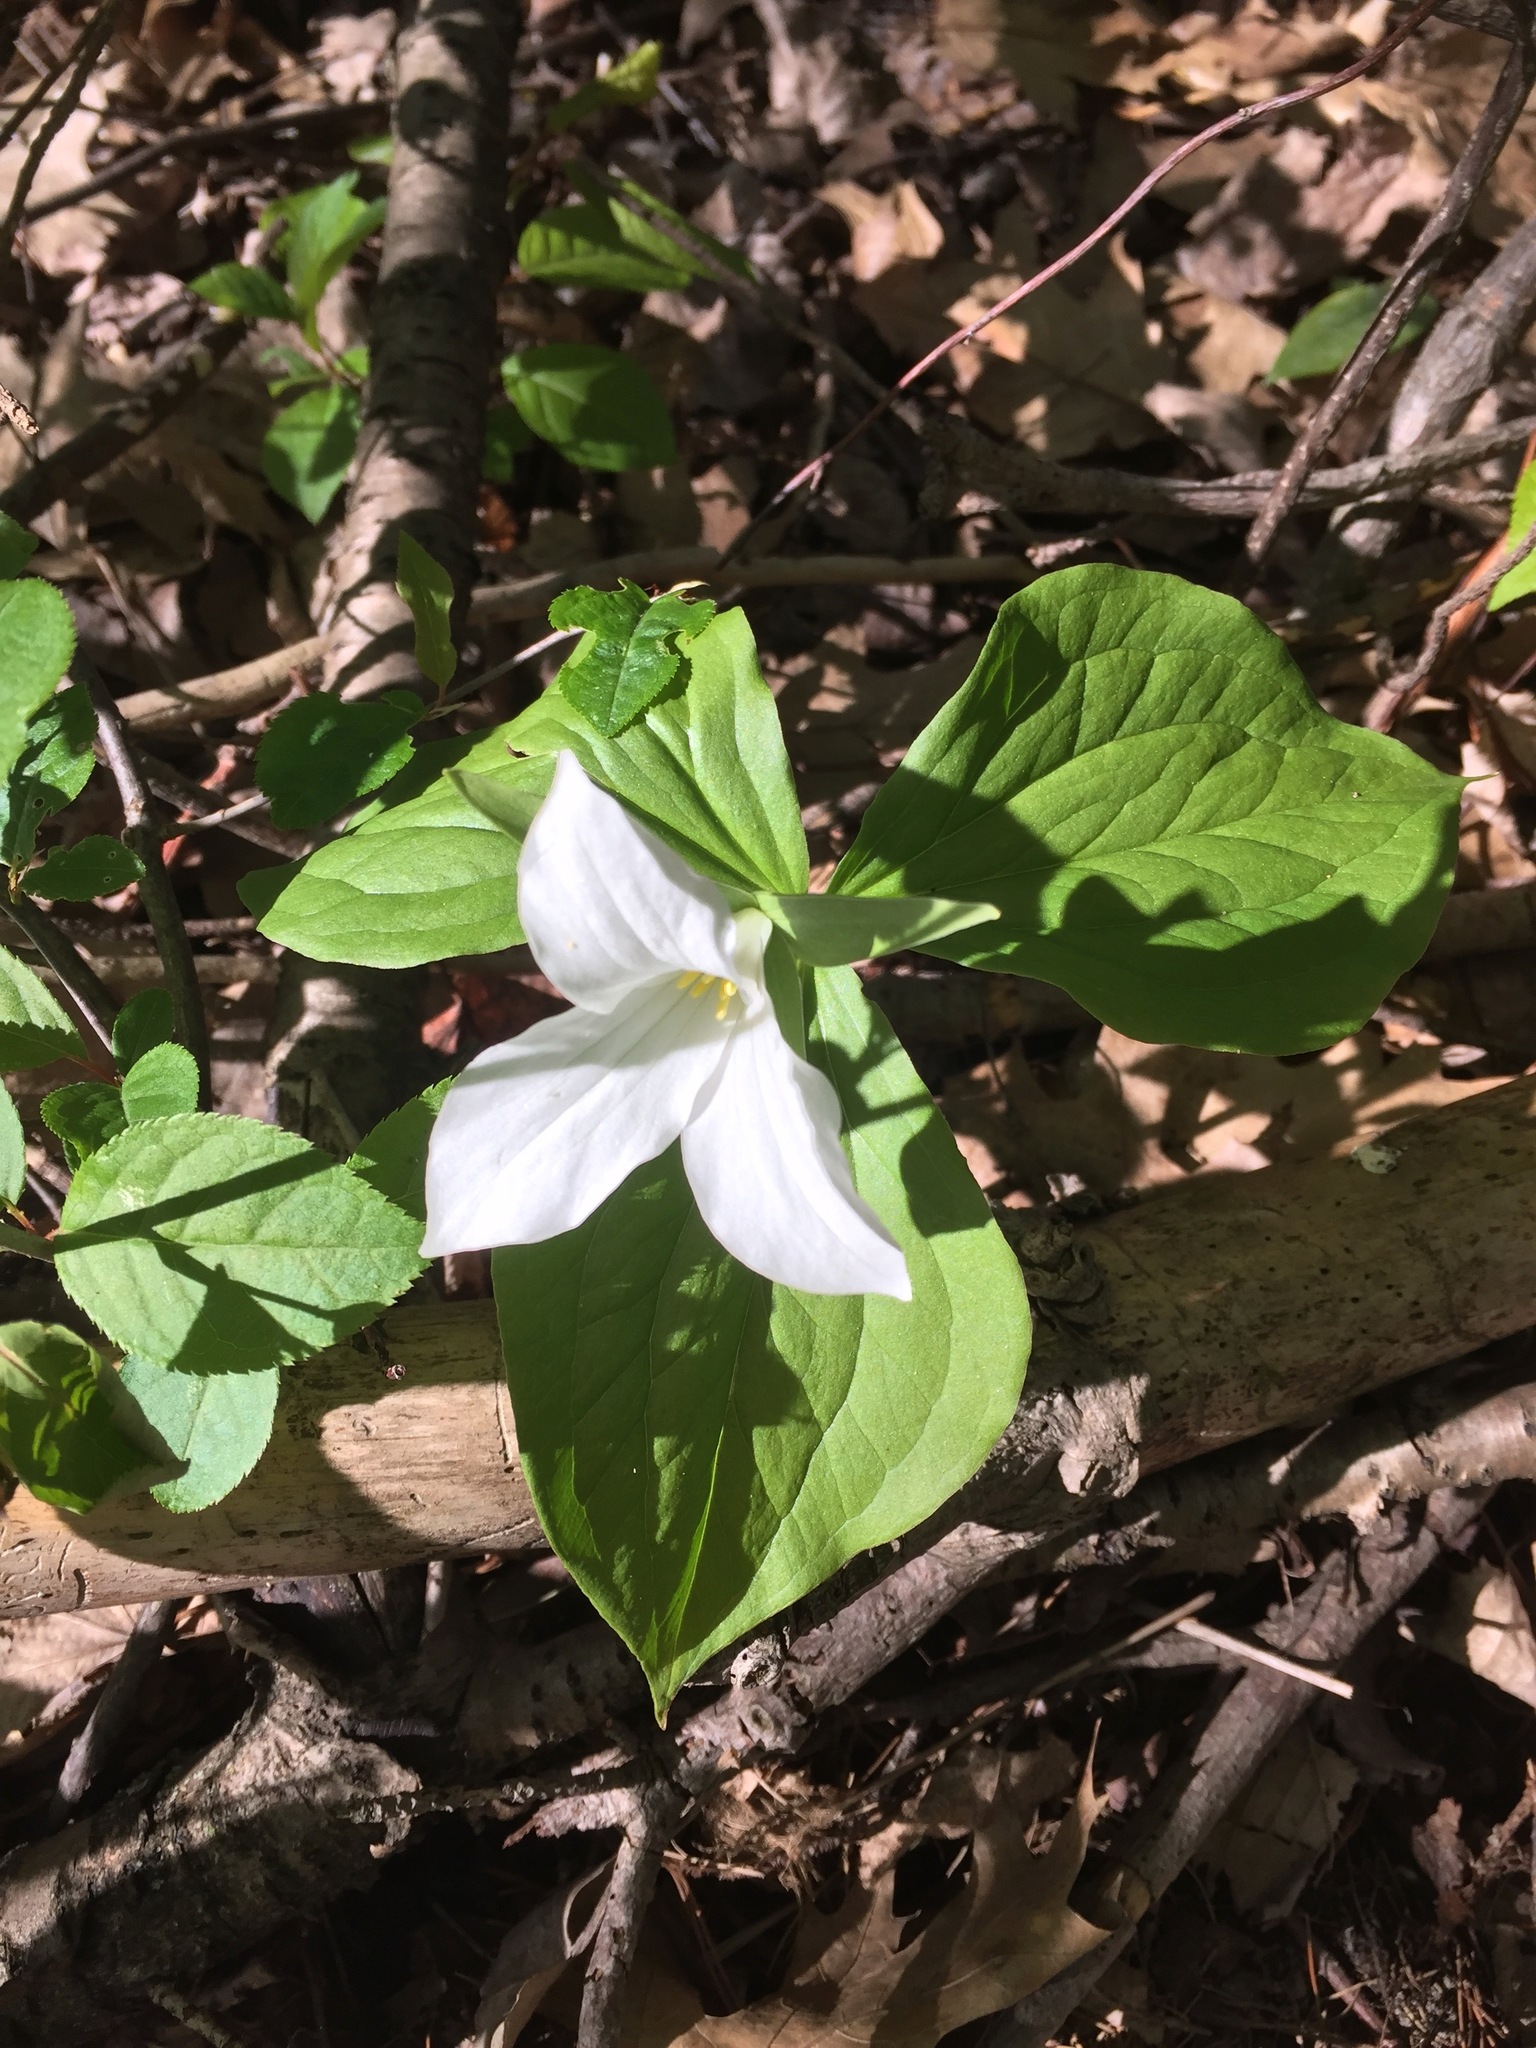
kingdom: Plantae
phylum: Tracheophyta
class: Liliopsida
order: Liliales
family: Melanthiaceae
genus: Trillium
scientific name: Trillium grandiflorum
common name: Great white trillium
